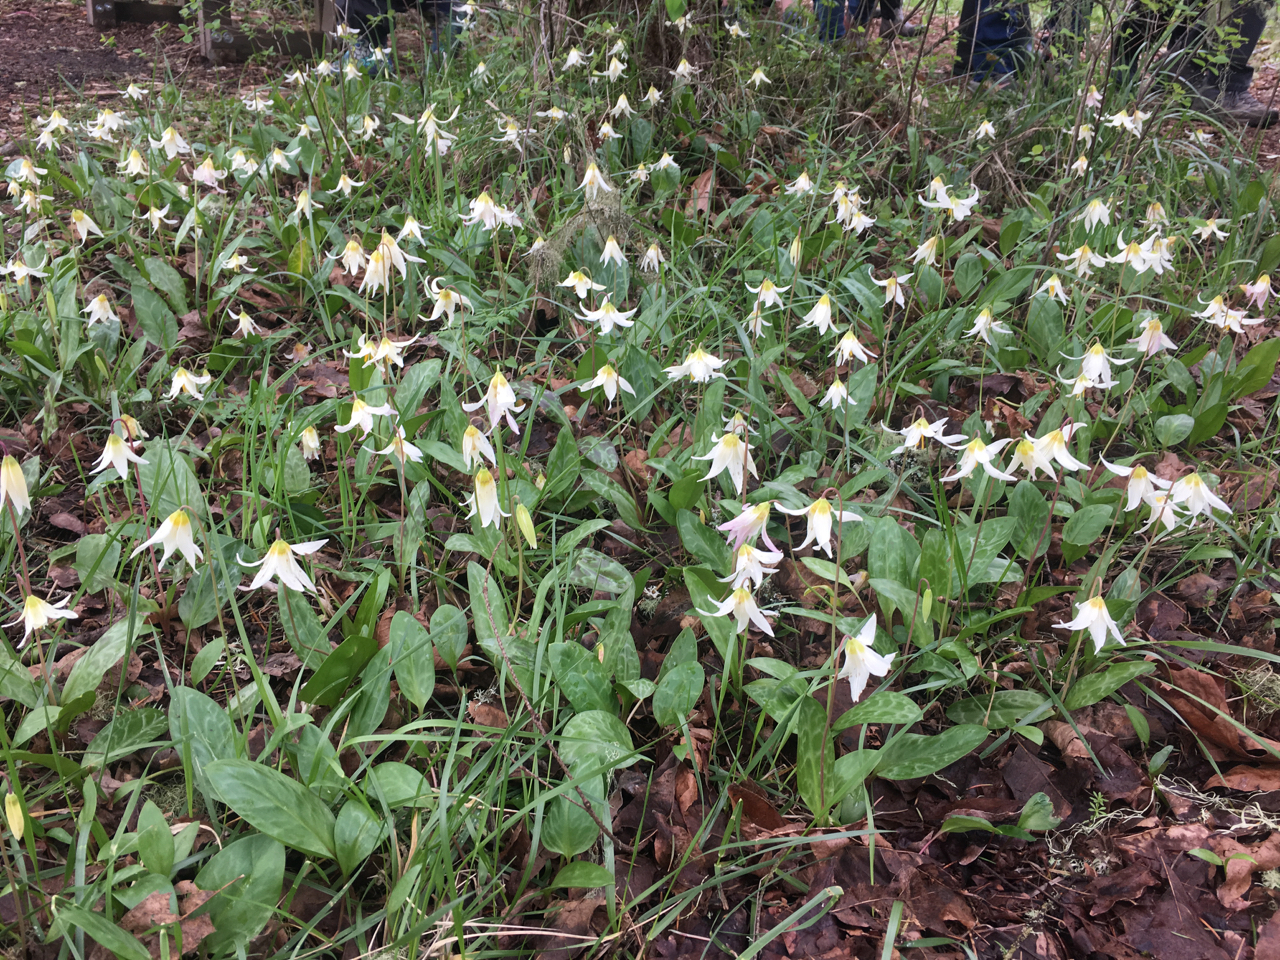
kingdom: Plantae
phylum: Tracheophyta
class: Liliopsida
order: Liliales
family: Liliaceae
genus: Erythronium
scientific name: Erythronium oregonum
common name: Giant adder's-tongue
